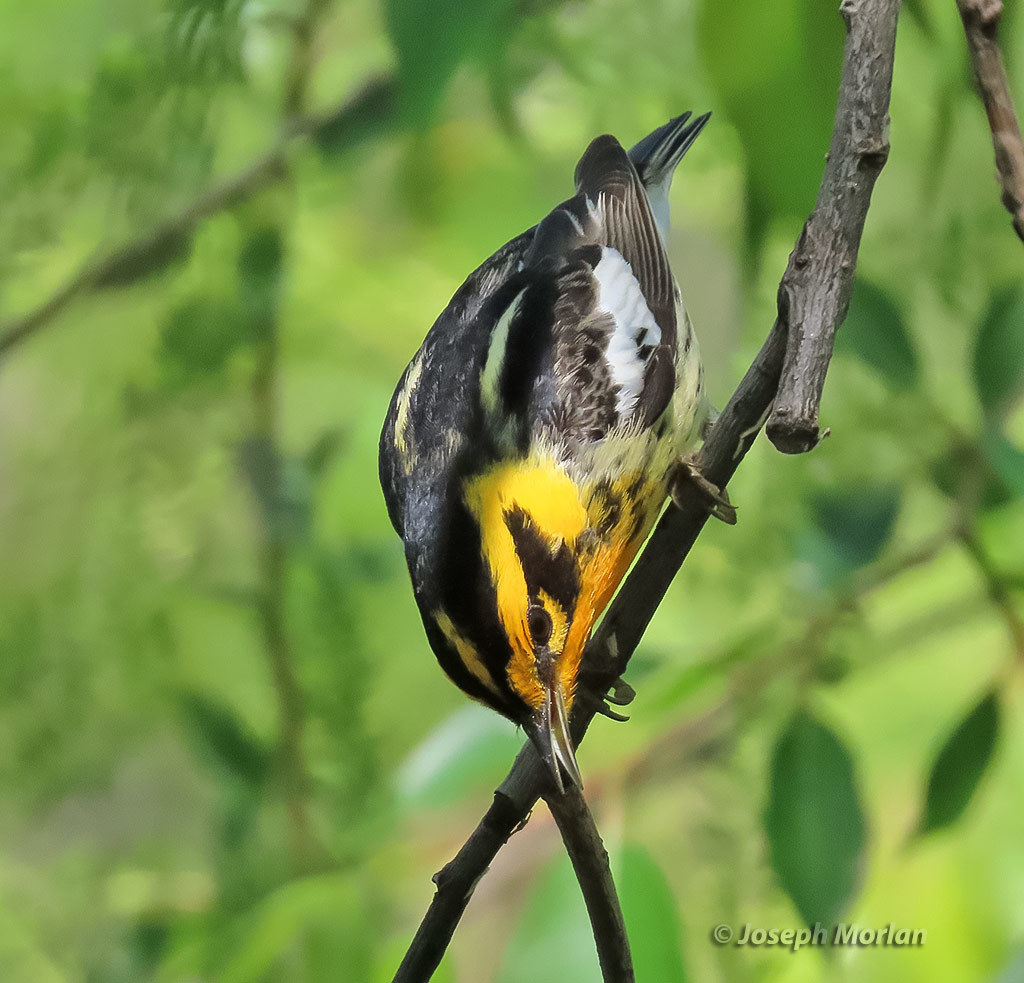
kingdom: Animalia
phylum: Chordata
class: Aves
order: Passeriformes
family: Parulidae
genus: Setophaga
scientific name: Setophaga fusca
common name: Blackburnian warbler
